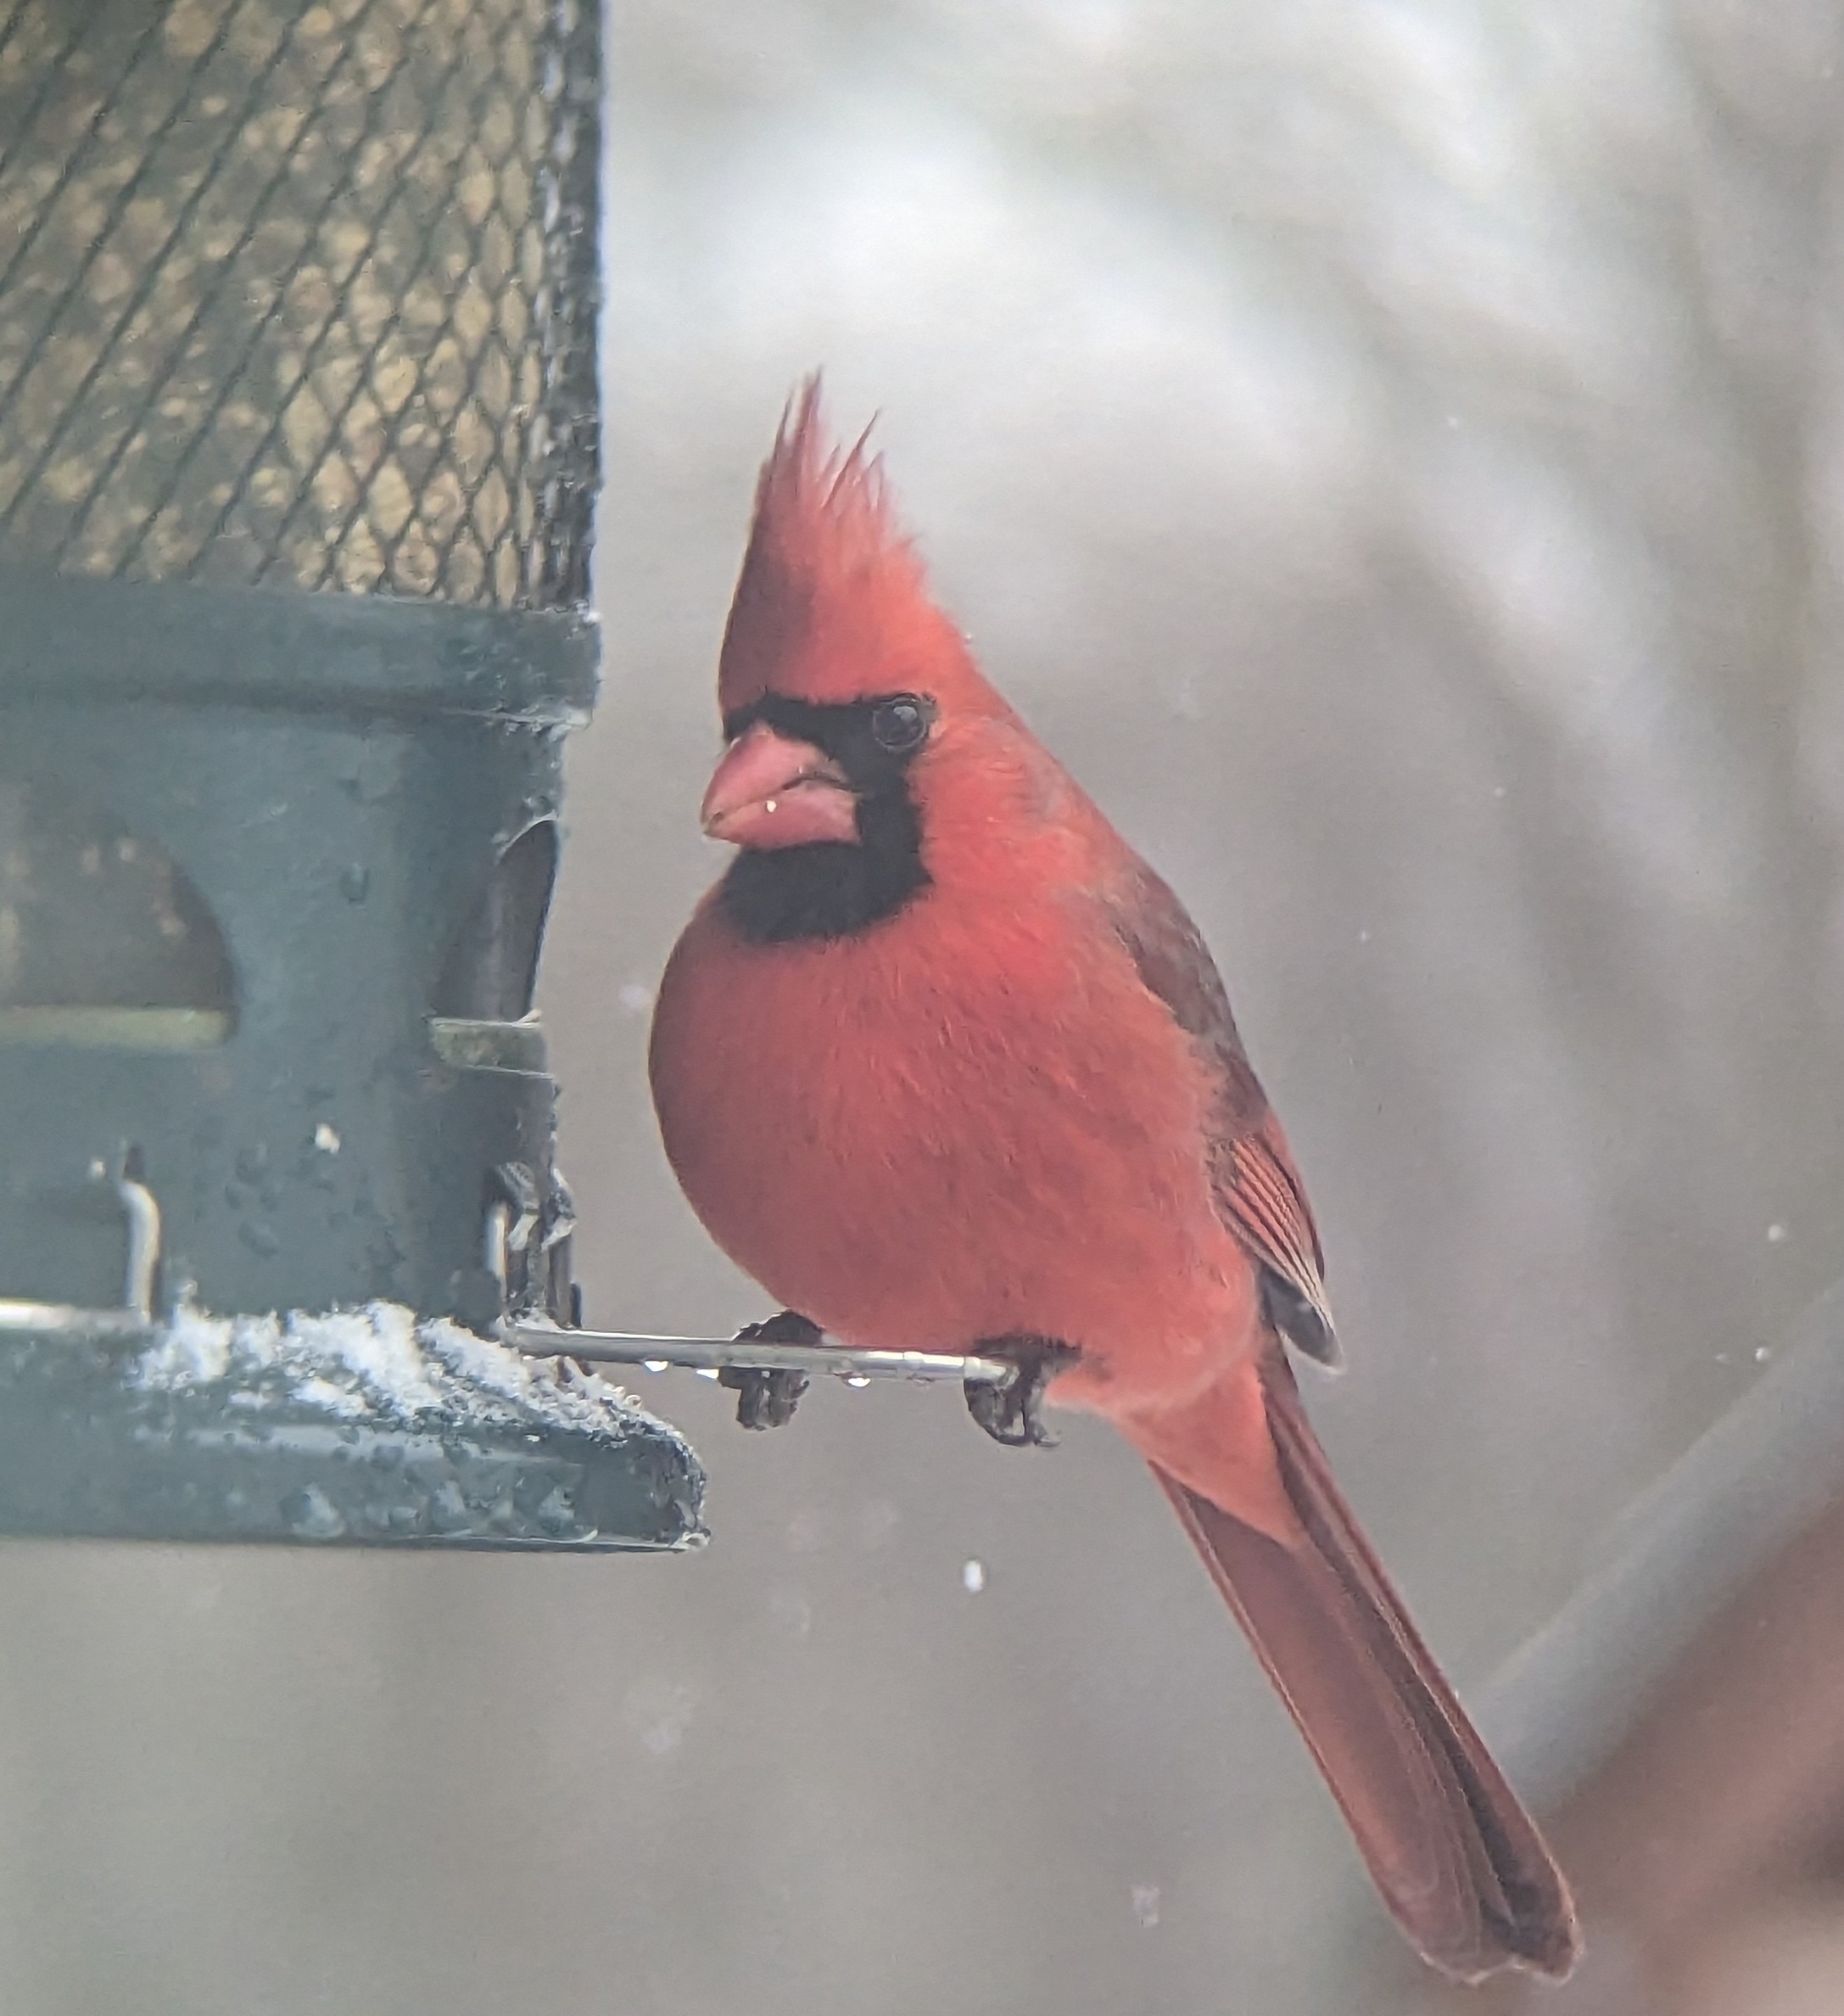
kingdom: Animalia
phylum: Chordata
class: Aves
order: Passeriformes
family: Cardinalidae
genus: Cardinalis
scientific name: Cardinalis cardinalis
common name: Northern cardinal
